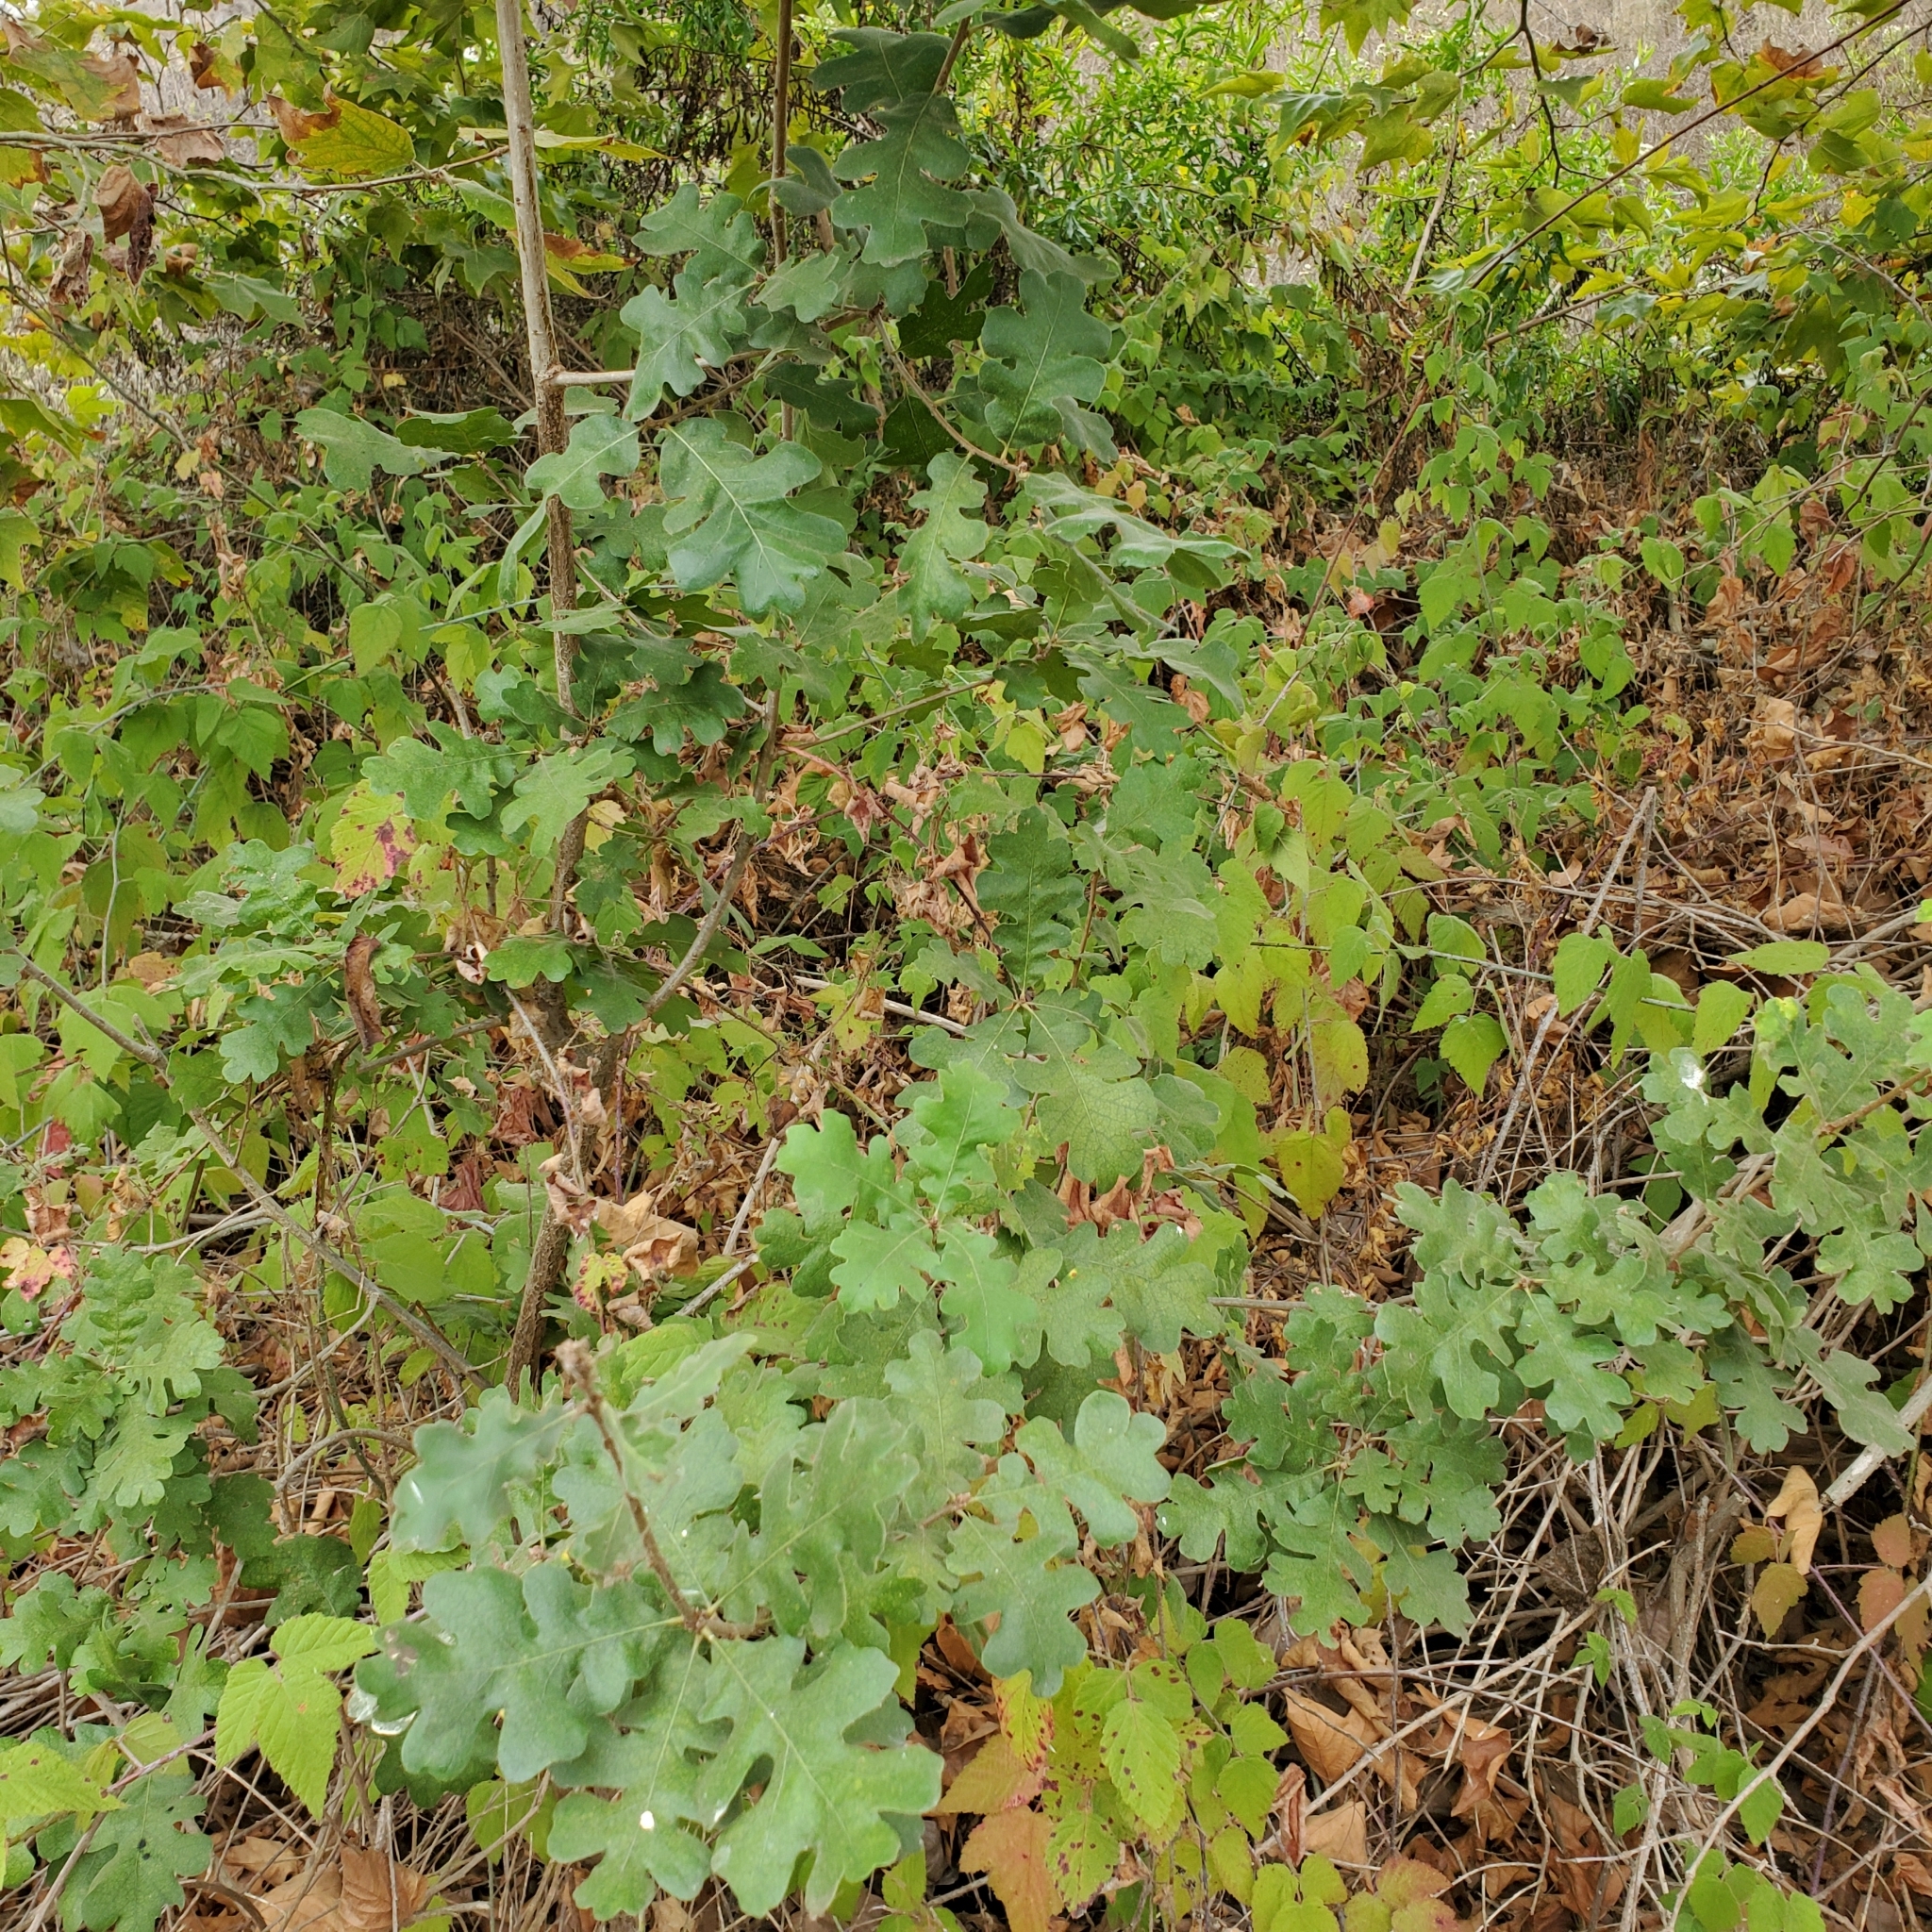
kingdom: Plantae
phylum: Tracheophyta
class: Magnoliopsida
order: Fagales
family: Fagaceae
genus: Quercus
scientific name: Quercus lobata
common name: Valley oak
